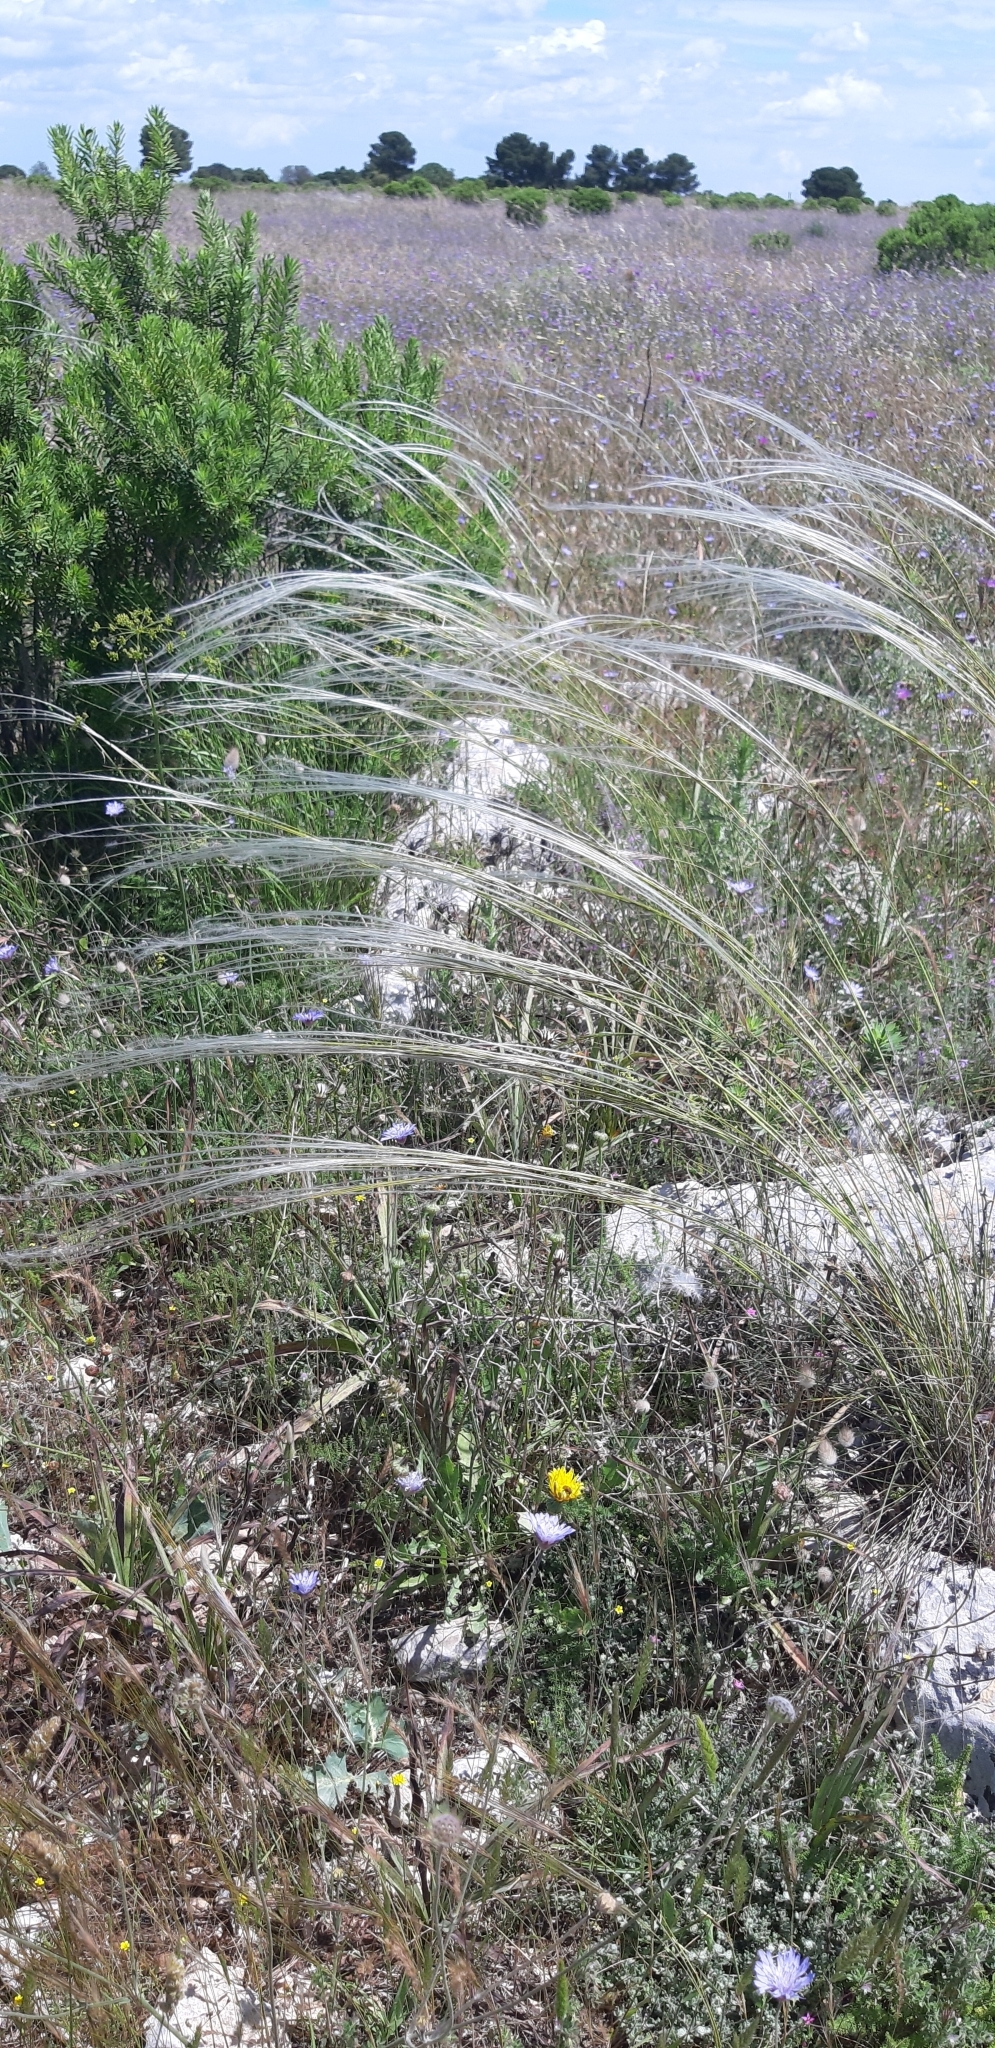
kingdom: Plantae
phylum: Tracheophyta
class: Liliopsida
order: Poales
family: Poaceae
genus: Stipa
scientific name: Stipa austroitalica
